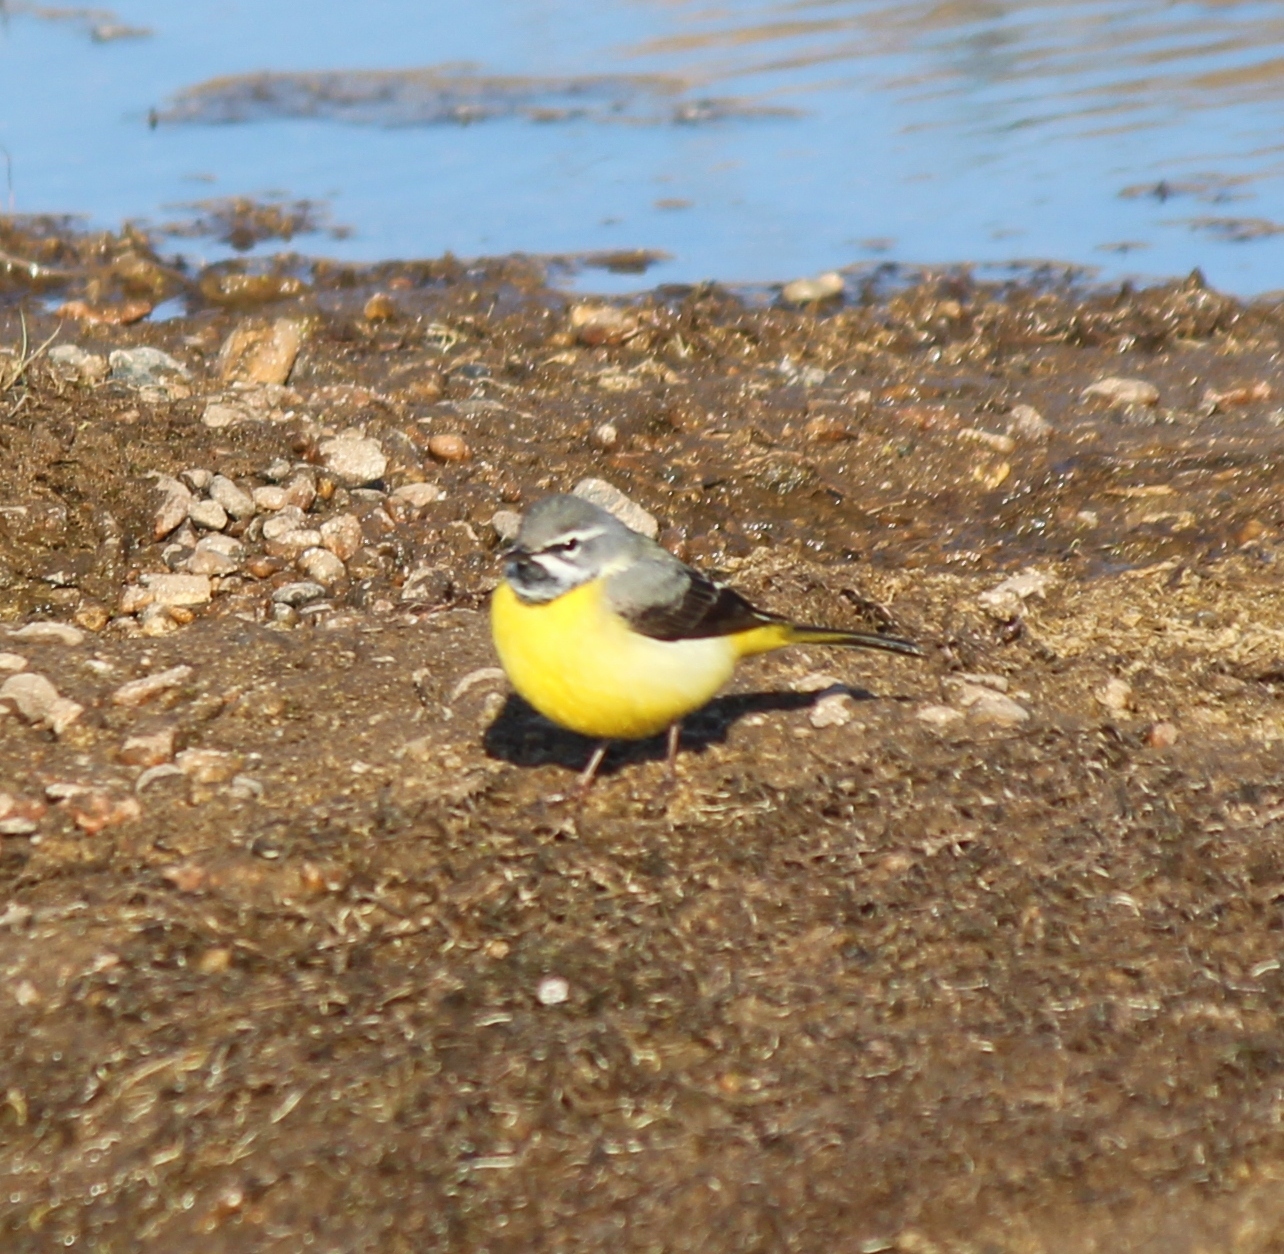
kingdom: Animalia
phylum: Chordata
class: Aves
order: Passeriformes
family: Motacillidae
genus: Motacilla
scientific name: Motacilla cinerea
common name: Grey wagtail
